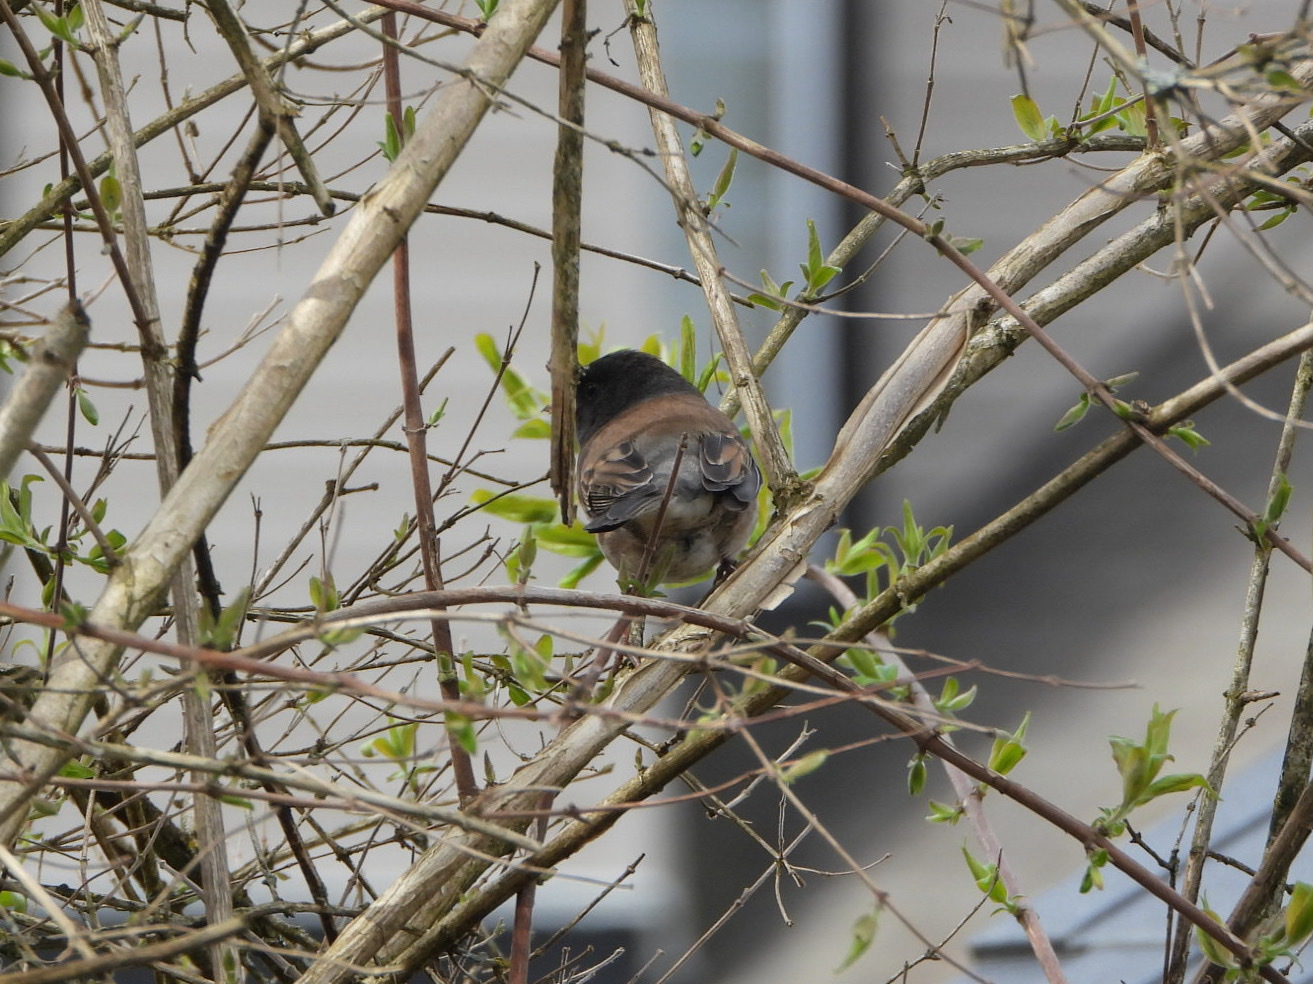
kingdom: Animalia
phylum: Chordata
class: Aves
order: Passeriformes
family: Passerellidae
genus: Junco
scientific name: Junco hyemalis
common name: Dark-eyed junco
